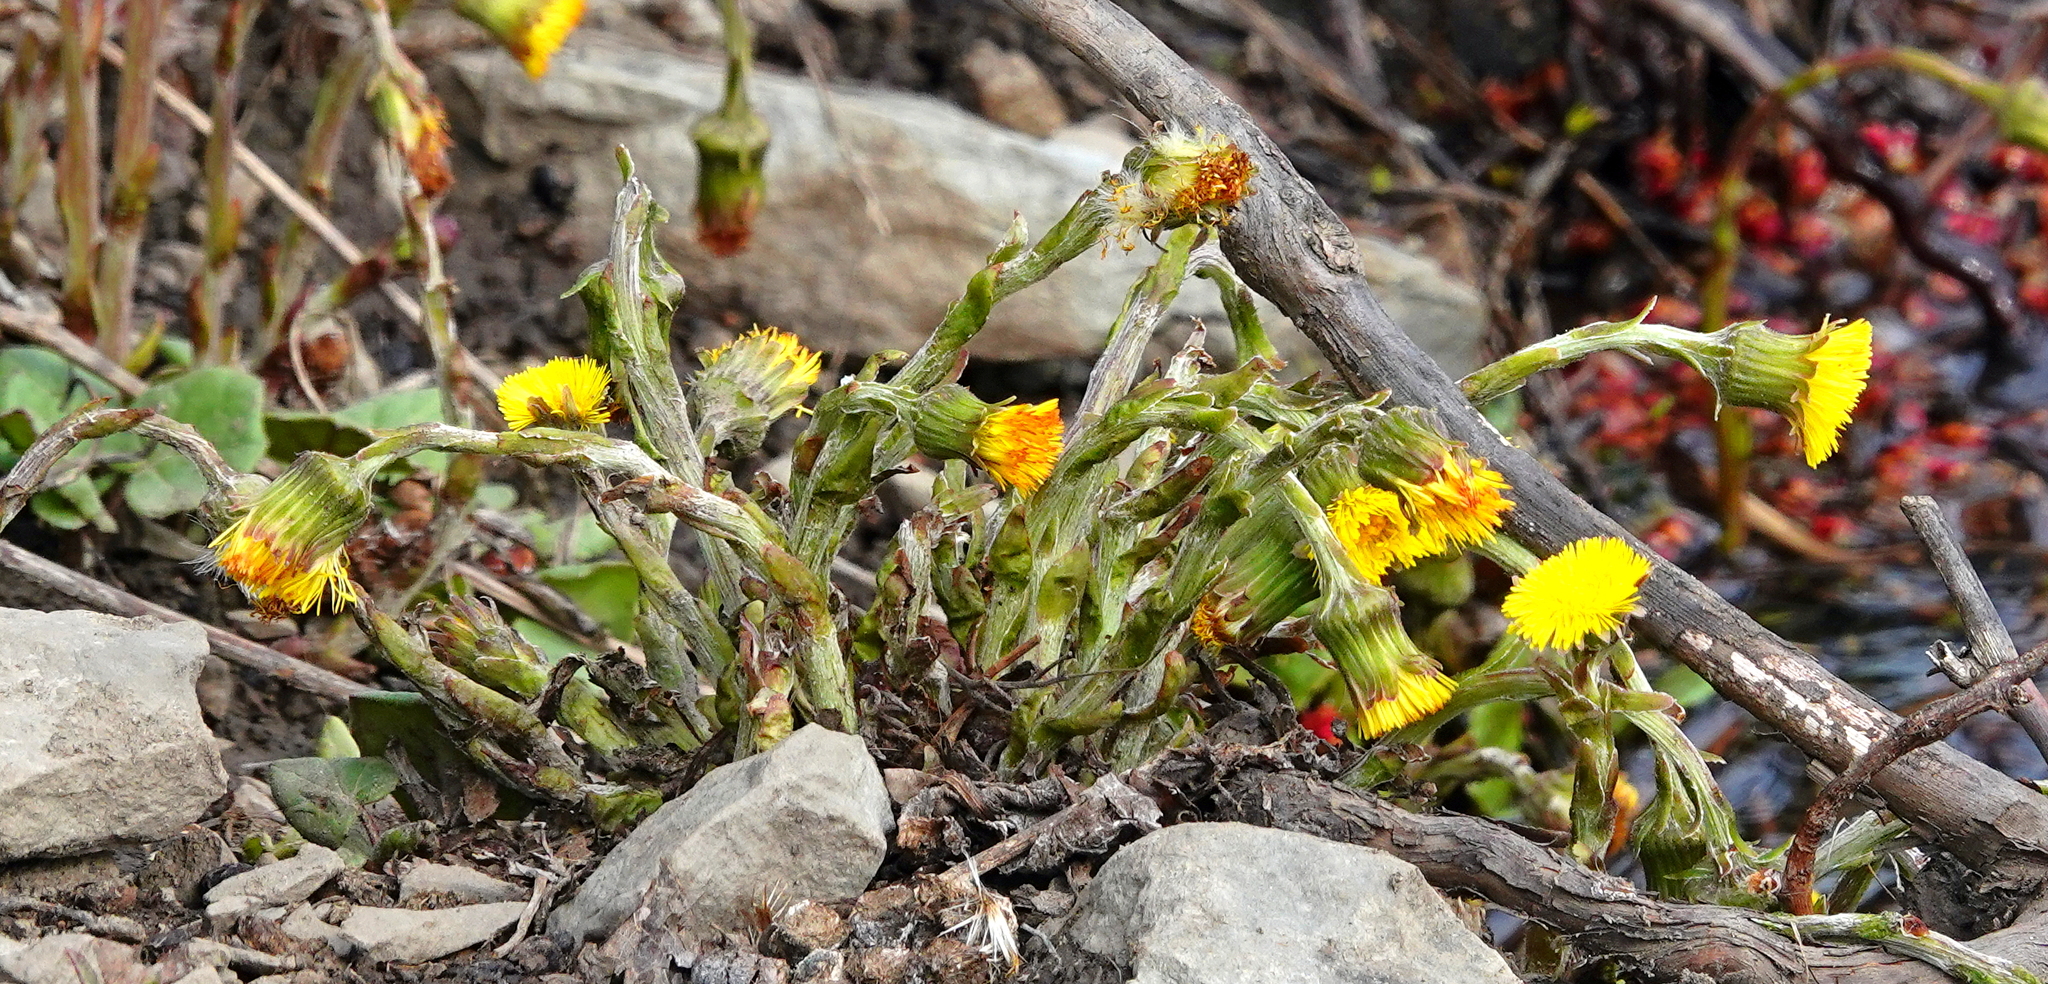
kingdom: Plantae
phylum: Tracheophyta
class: Magnoliopsida
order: Asterales
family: Asteraceae
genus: Tussilago
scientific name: Tussilago farfara
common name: Coltsfoot
